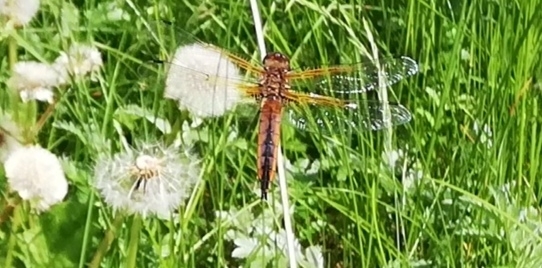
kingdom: Animalia
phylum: Arthropoda
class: Insecta
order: Odonata
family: Libellulidae
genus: Libellula
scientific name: Libellula fulva
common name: Blue chaser
